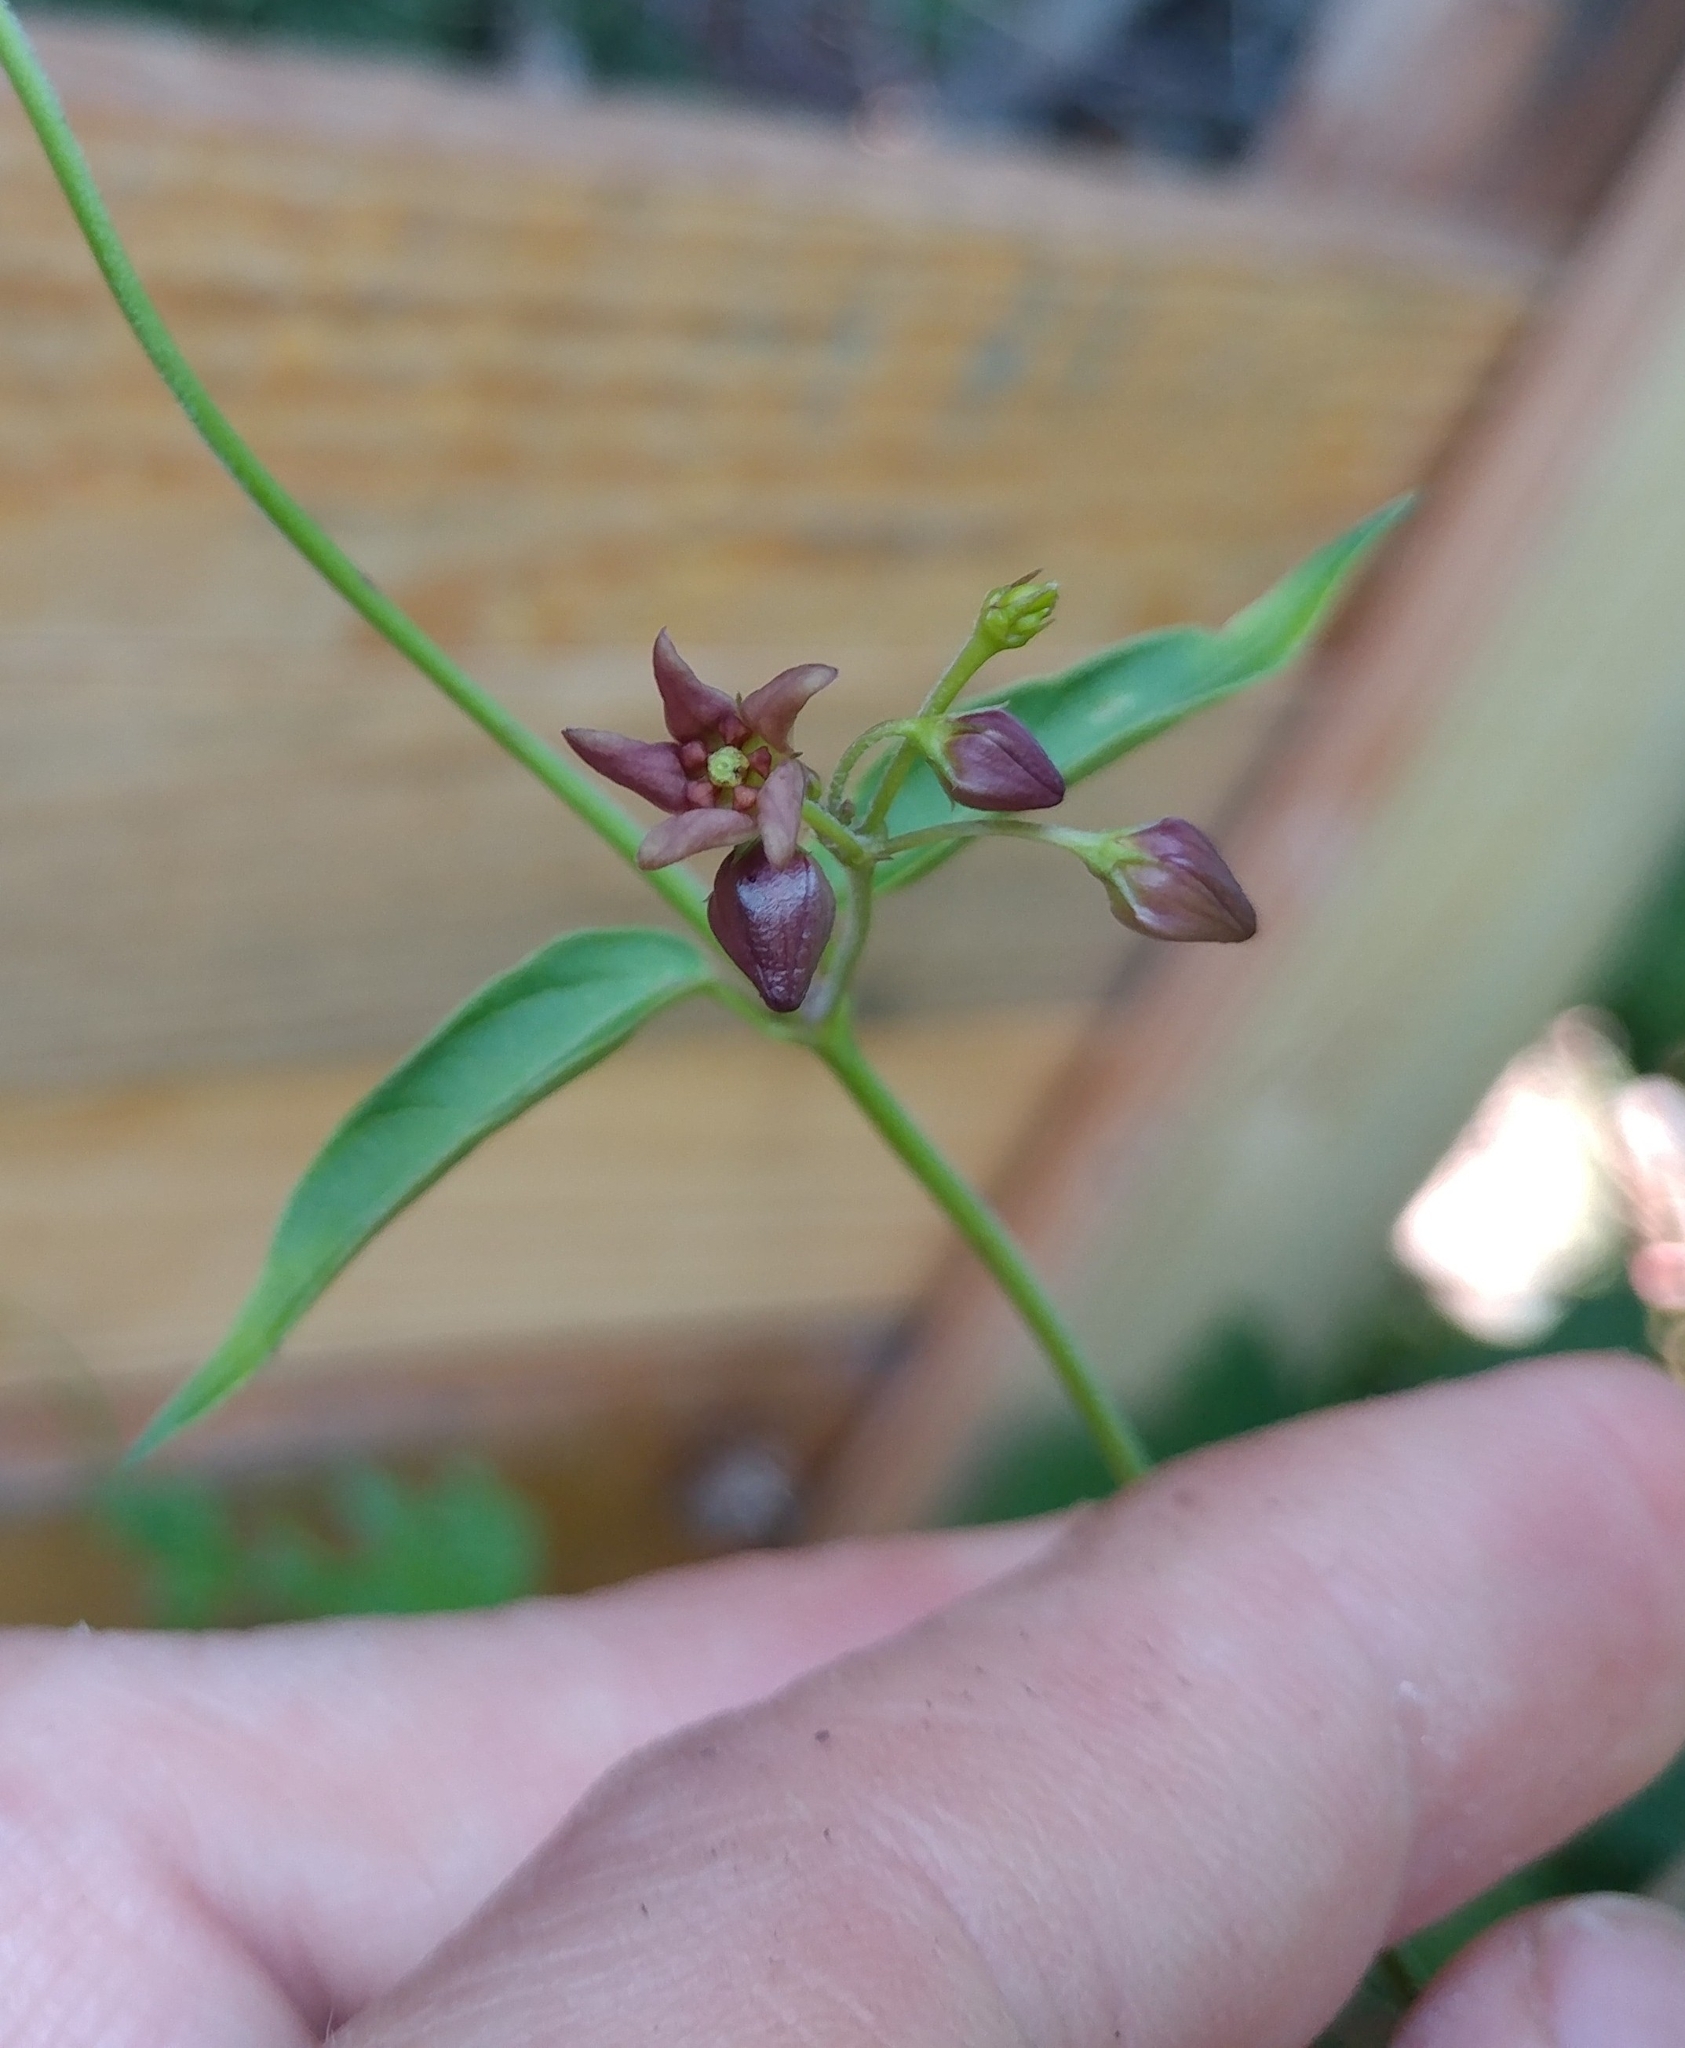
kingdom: Plantae
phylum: Tracheophyta
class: Magnoliopsida
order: Gentianales
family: Apocynaceae
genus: Vincetoxicum
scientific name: Vincetoxicum rossicum
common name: Dog-strangling vine
